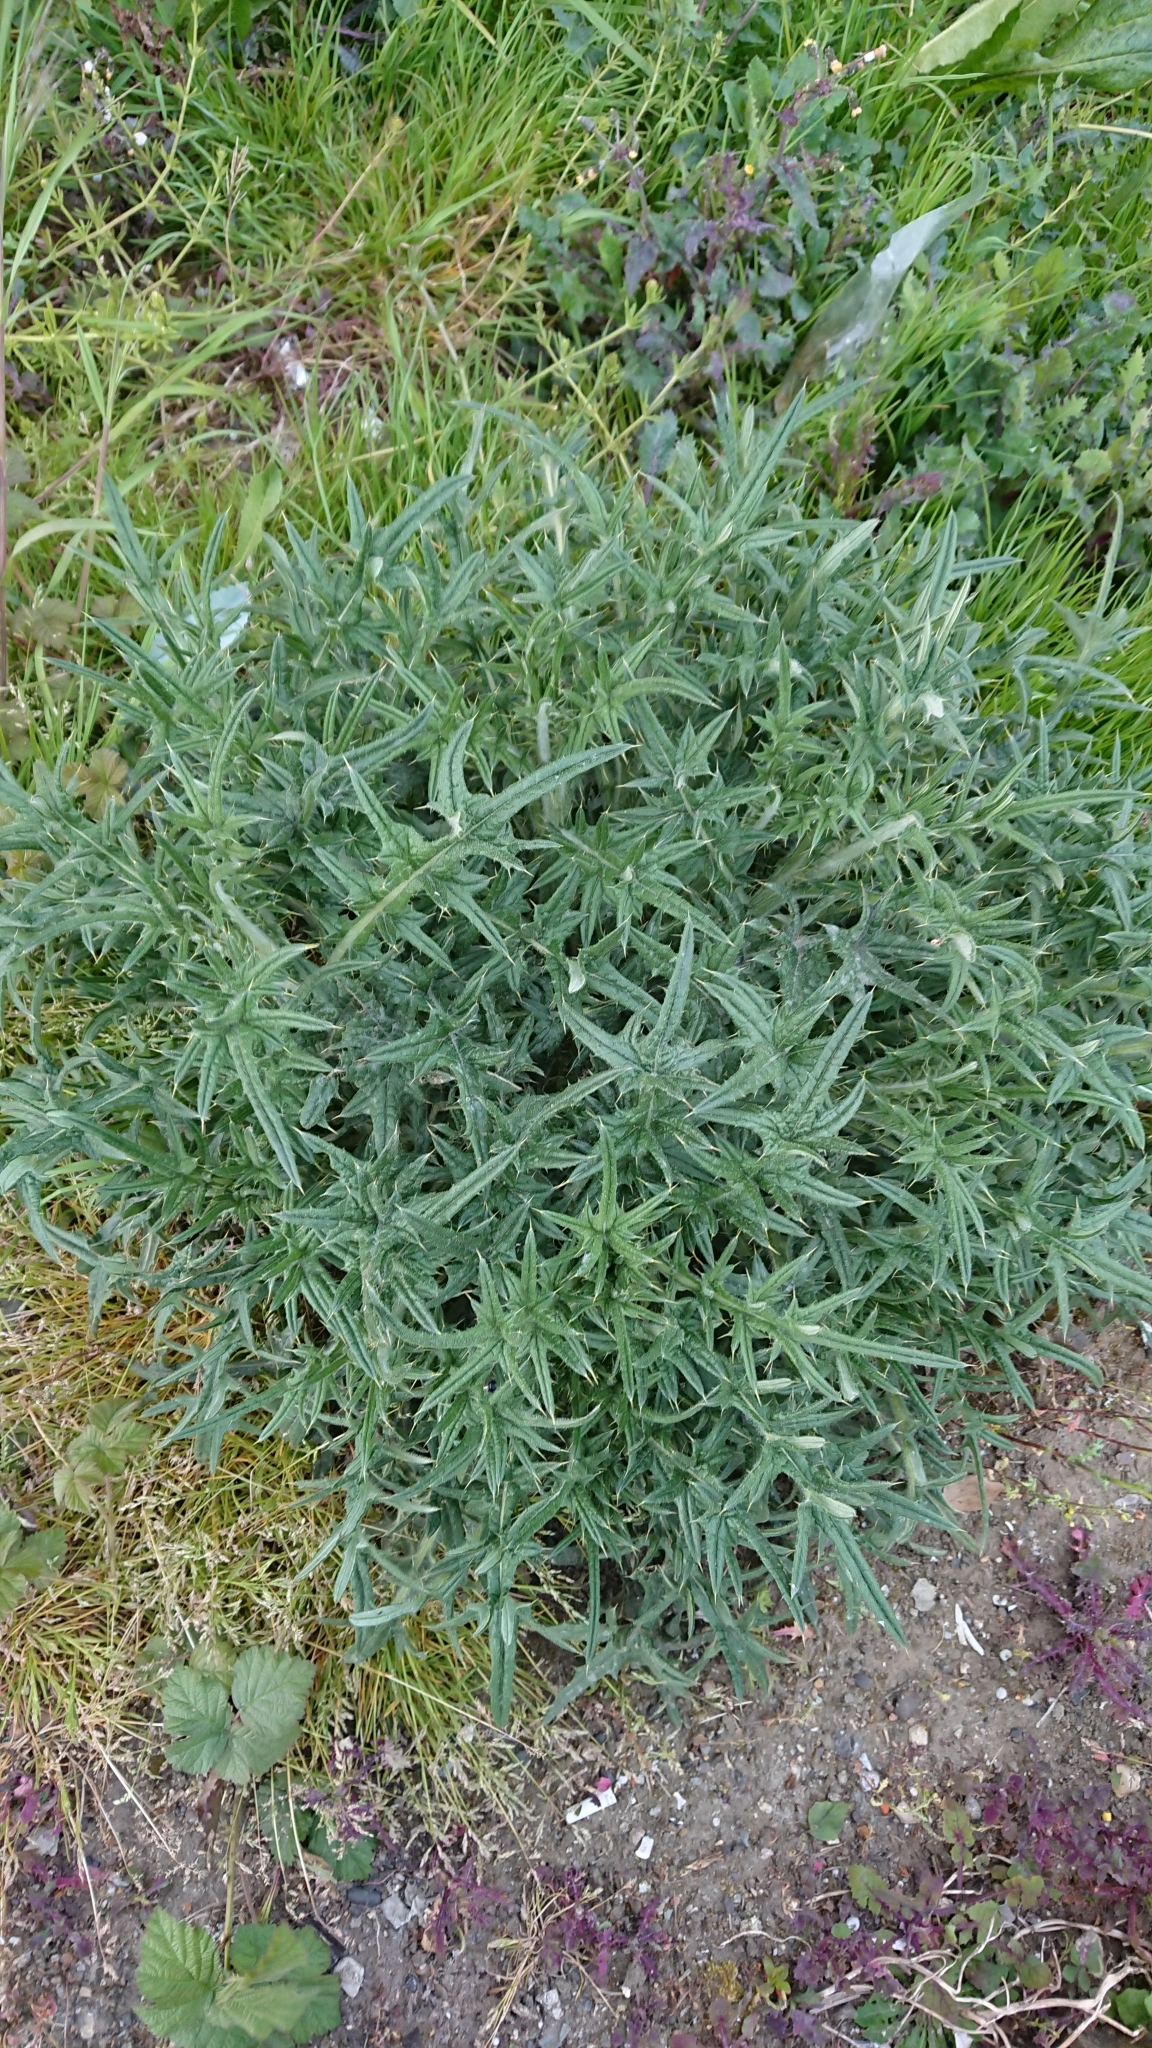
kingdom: Plantae
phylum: Tracheophyta
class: Magnoliopsida
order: Asterales
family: Asteraceae
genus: Cirsium
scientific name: Cirsium vulgare
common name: Bull thistle
